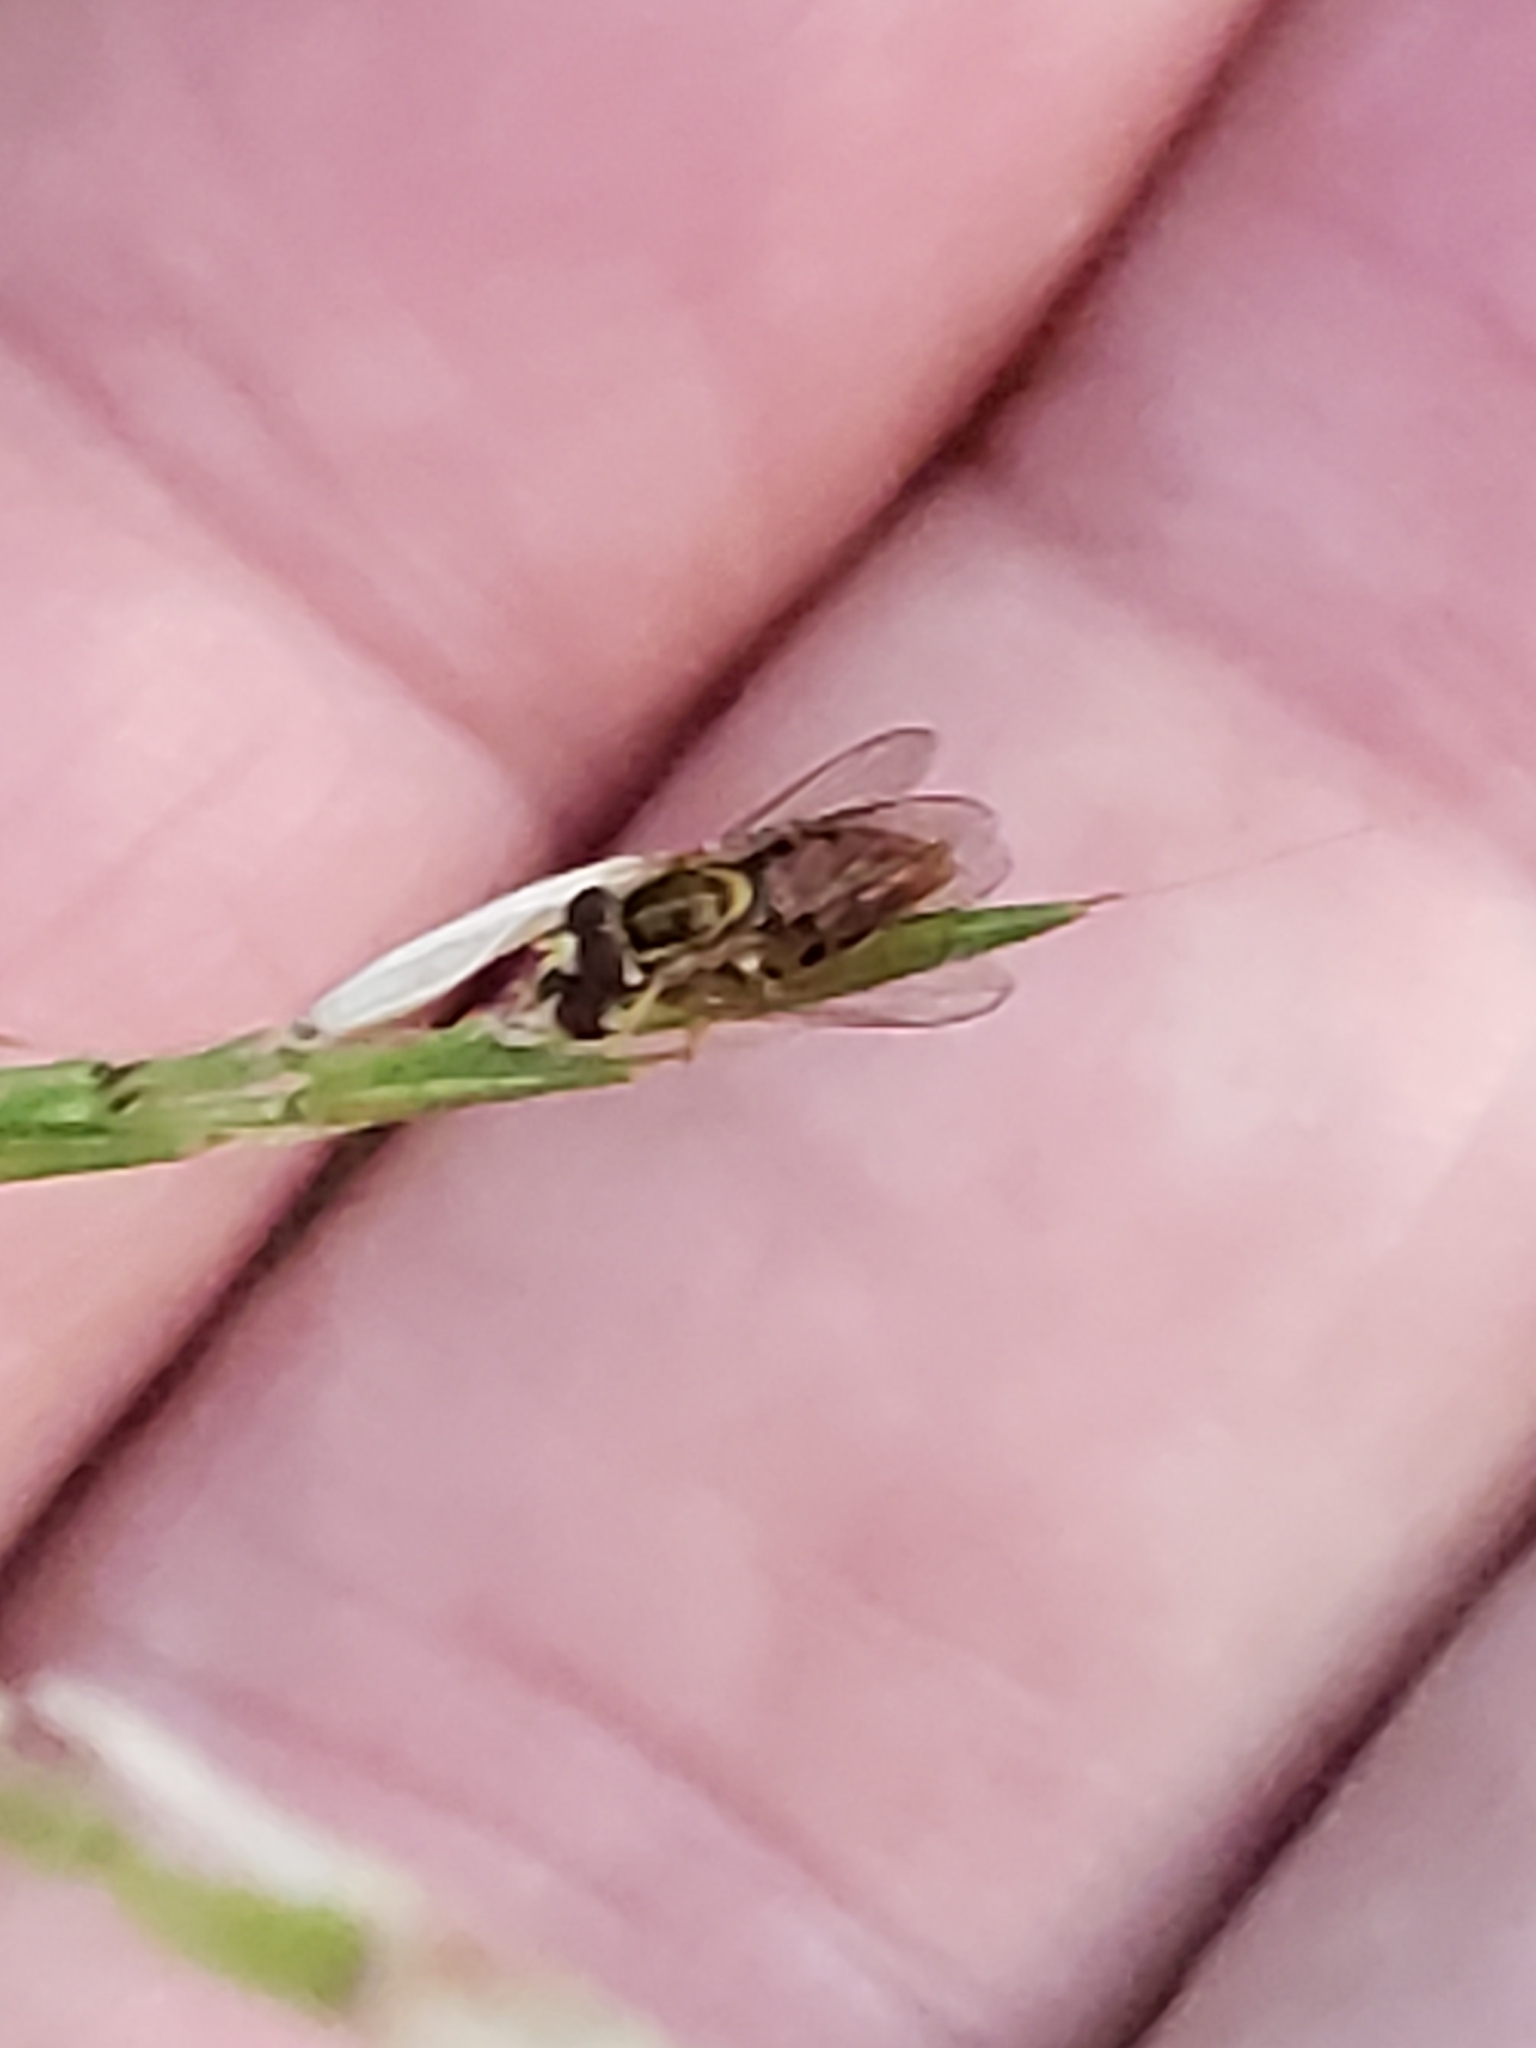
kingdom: Animalia
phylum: Arthropoda
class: Insecta
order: Diptera
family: Syrphidae
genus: Toxomerus
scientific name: Toxomerus marginatus
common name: Syrphid fly
